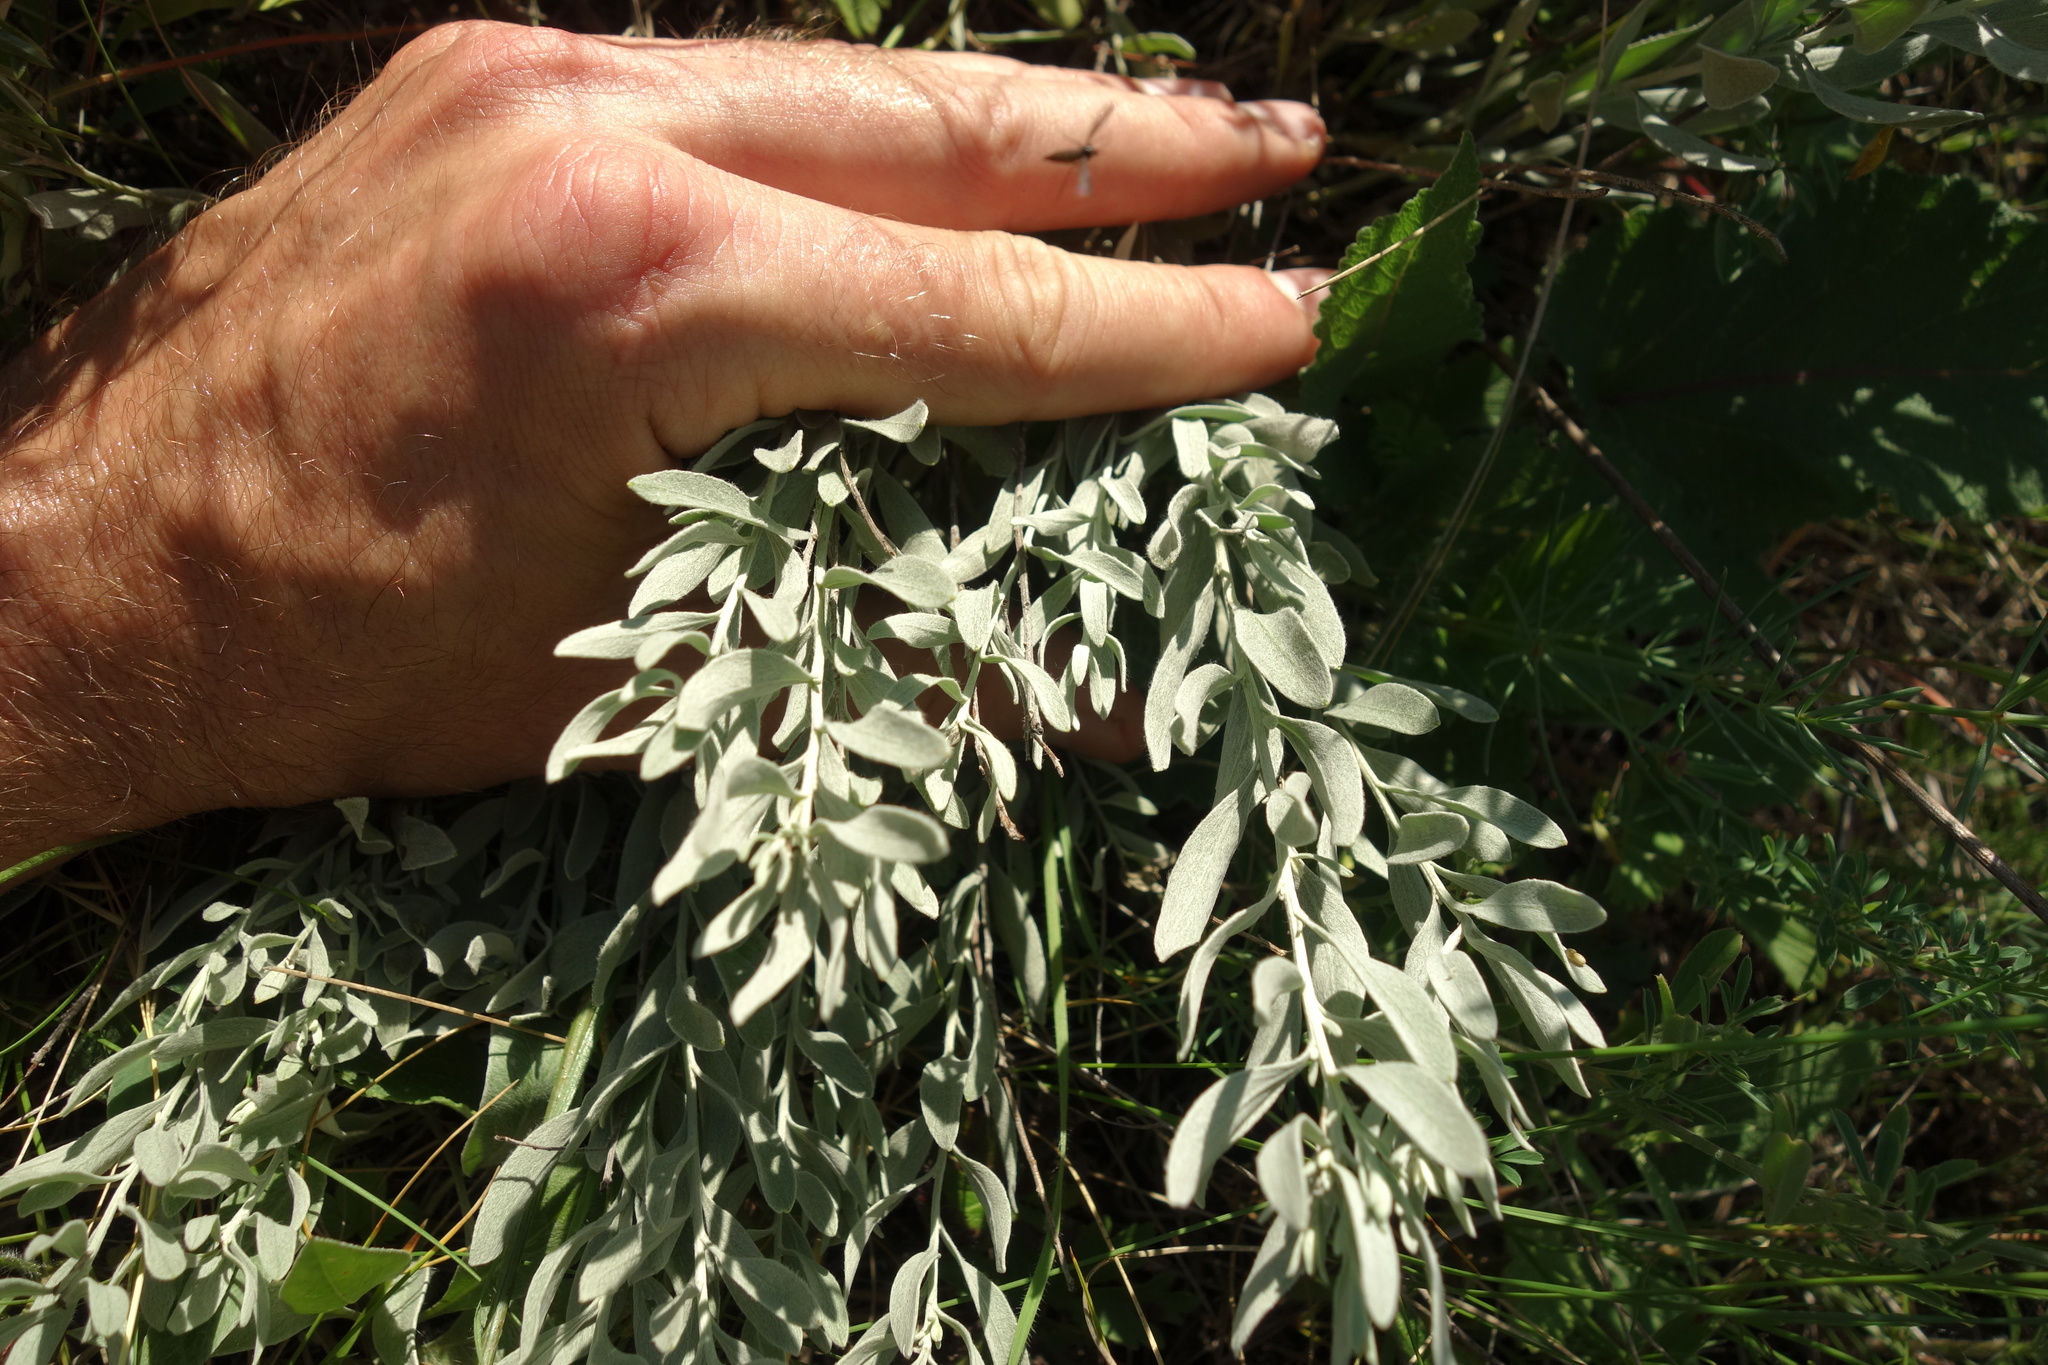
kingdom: Plantae
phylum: Tracheophyta
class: Magnoliopsida
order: Asterales
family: Asteraceae
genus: Galatella
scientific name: Galatella villosa
